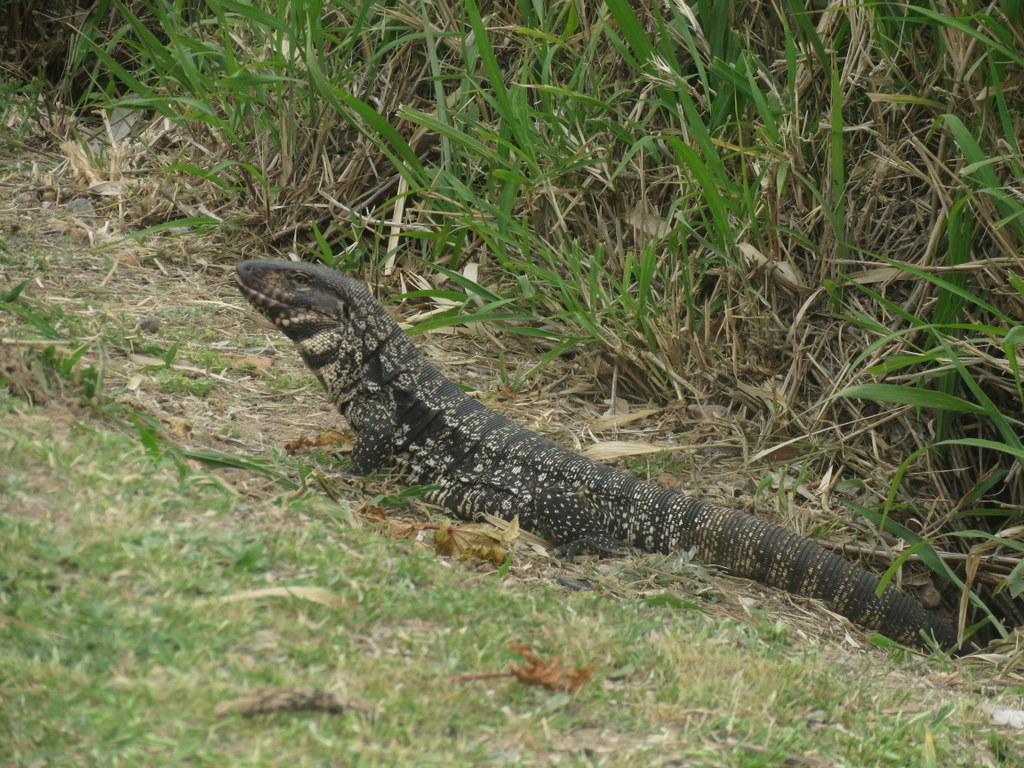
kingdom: Animalia
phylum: Chordata
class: Squamata
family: Teiidae
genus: Salvator
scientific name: Salvator merianae
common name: Argentine black and white tegu
